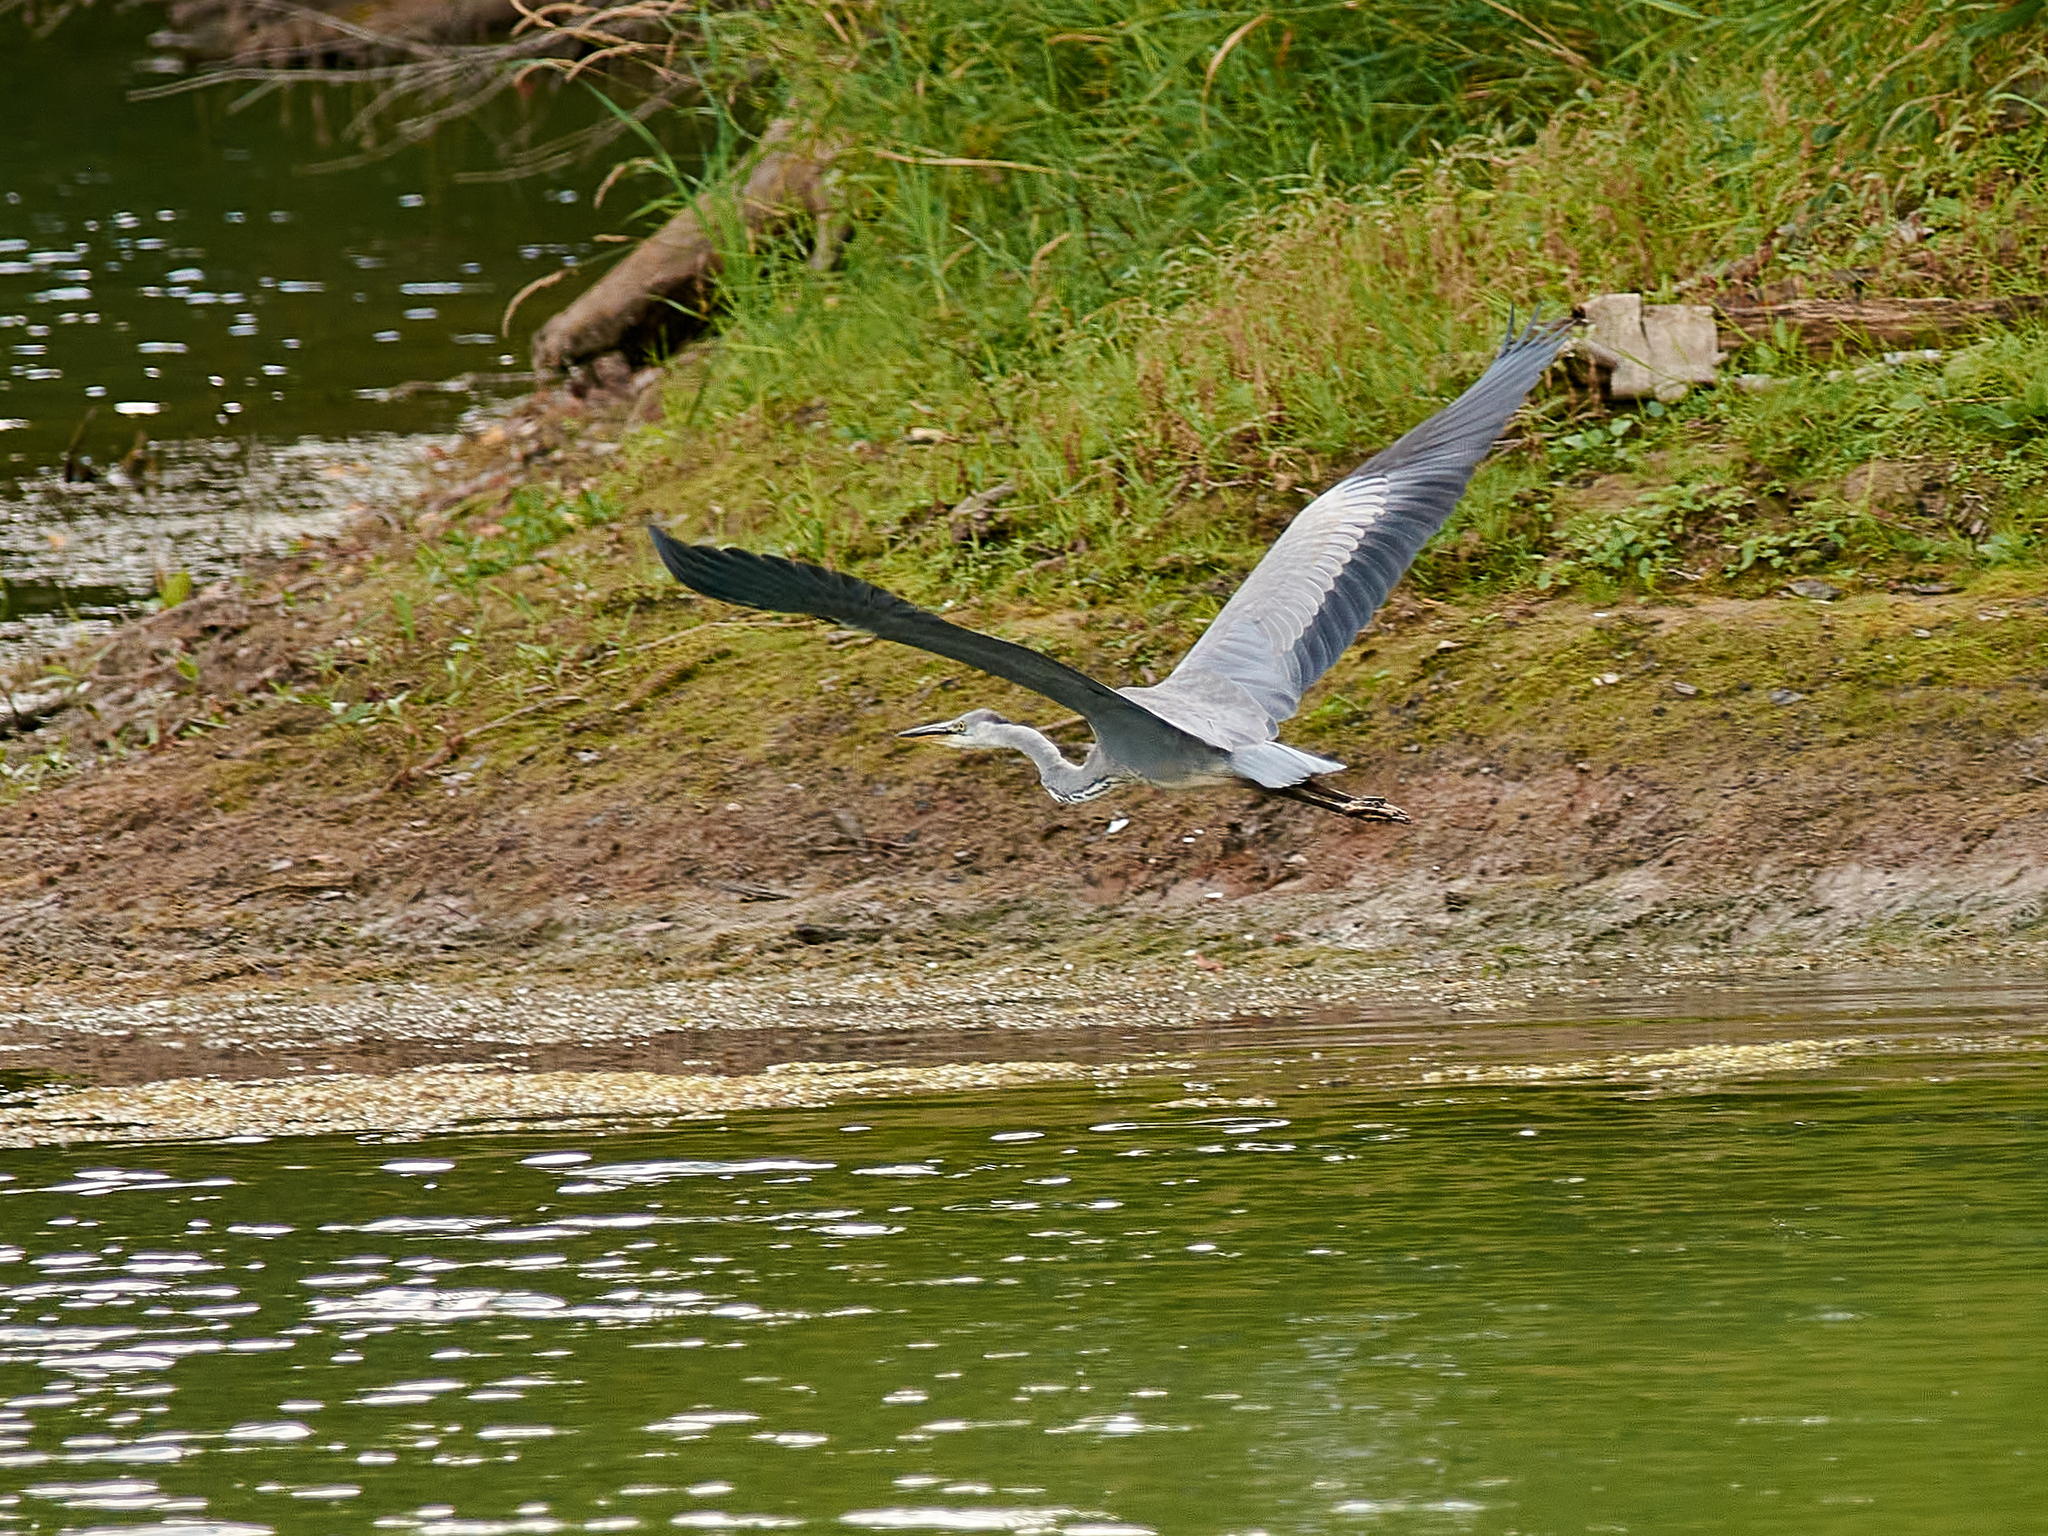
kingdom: Animalia
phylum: Chordata
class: Aves
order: Pelecaniformes
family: Ardeidae
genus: Ardea
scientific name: Ardea cinerea
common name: Grey heron
